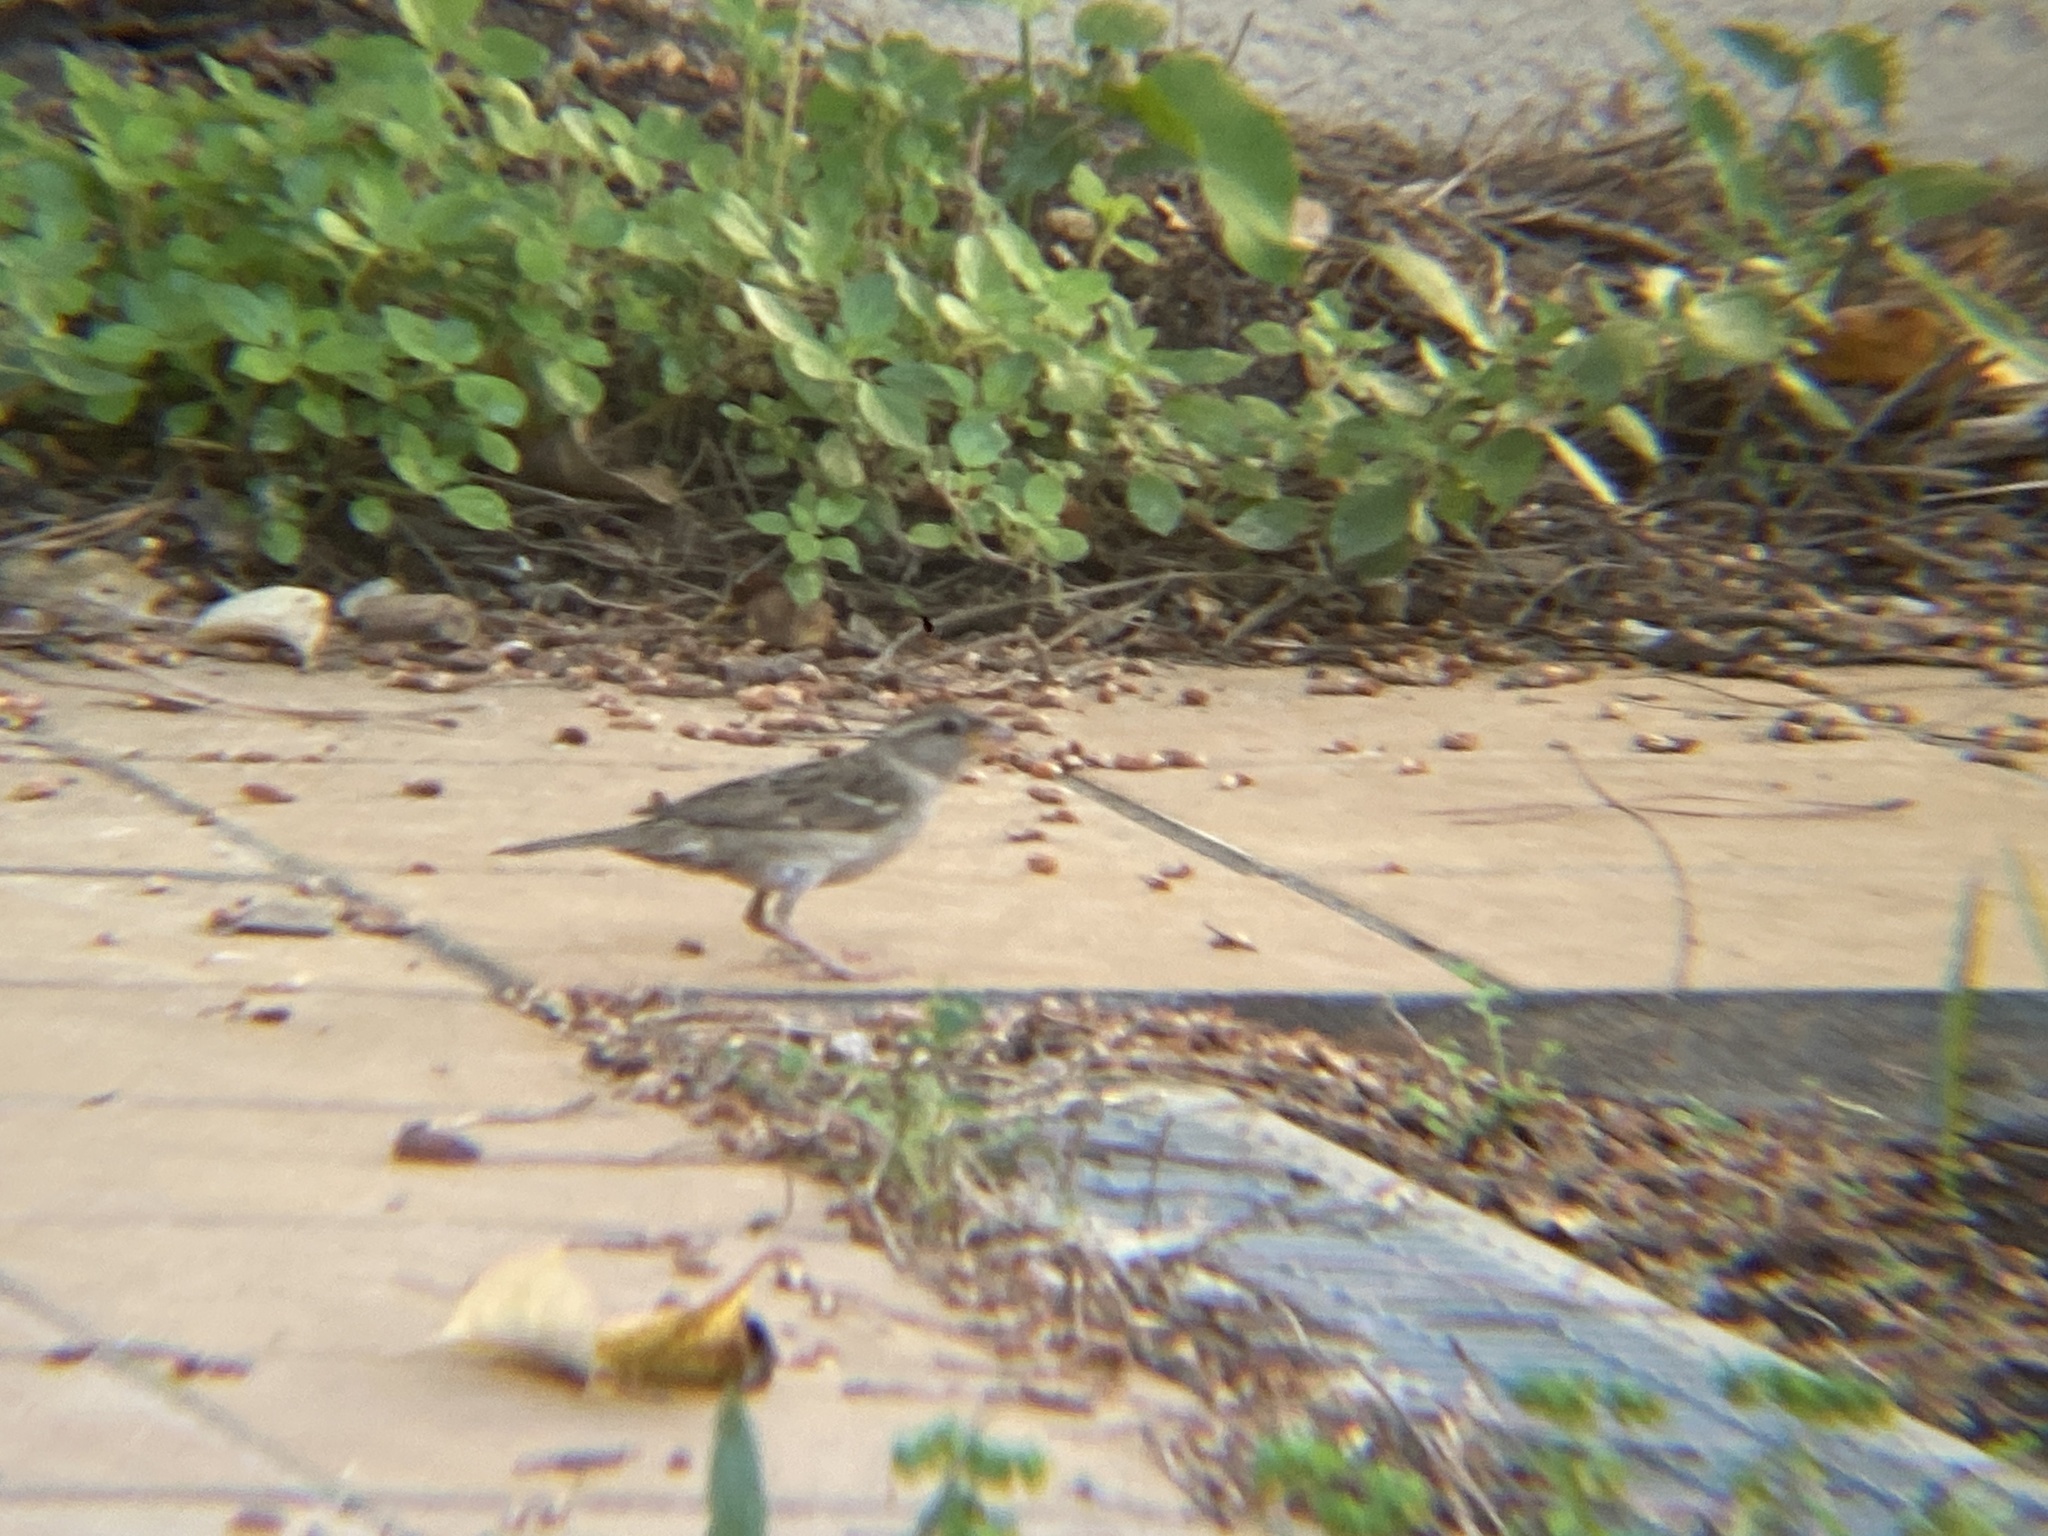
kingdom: Animalia
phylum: Chordata
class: Aves
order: Passeriformes
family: Passeridae
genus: Passer
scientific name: Passer domesticus
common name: House sparrow
